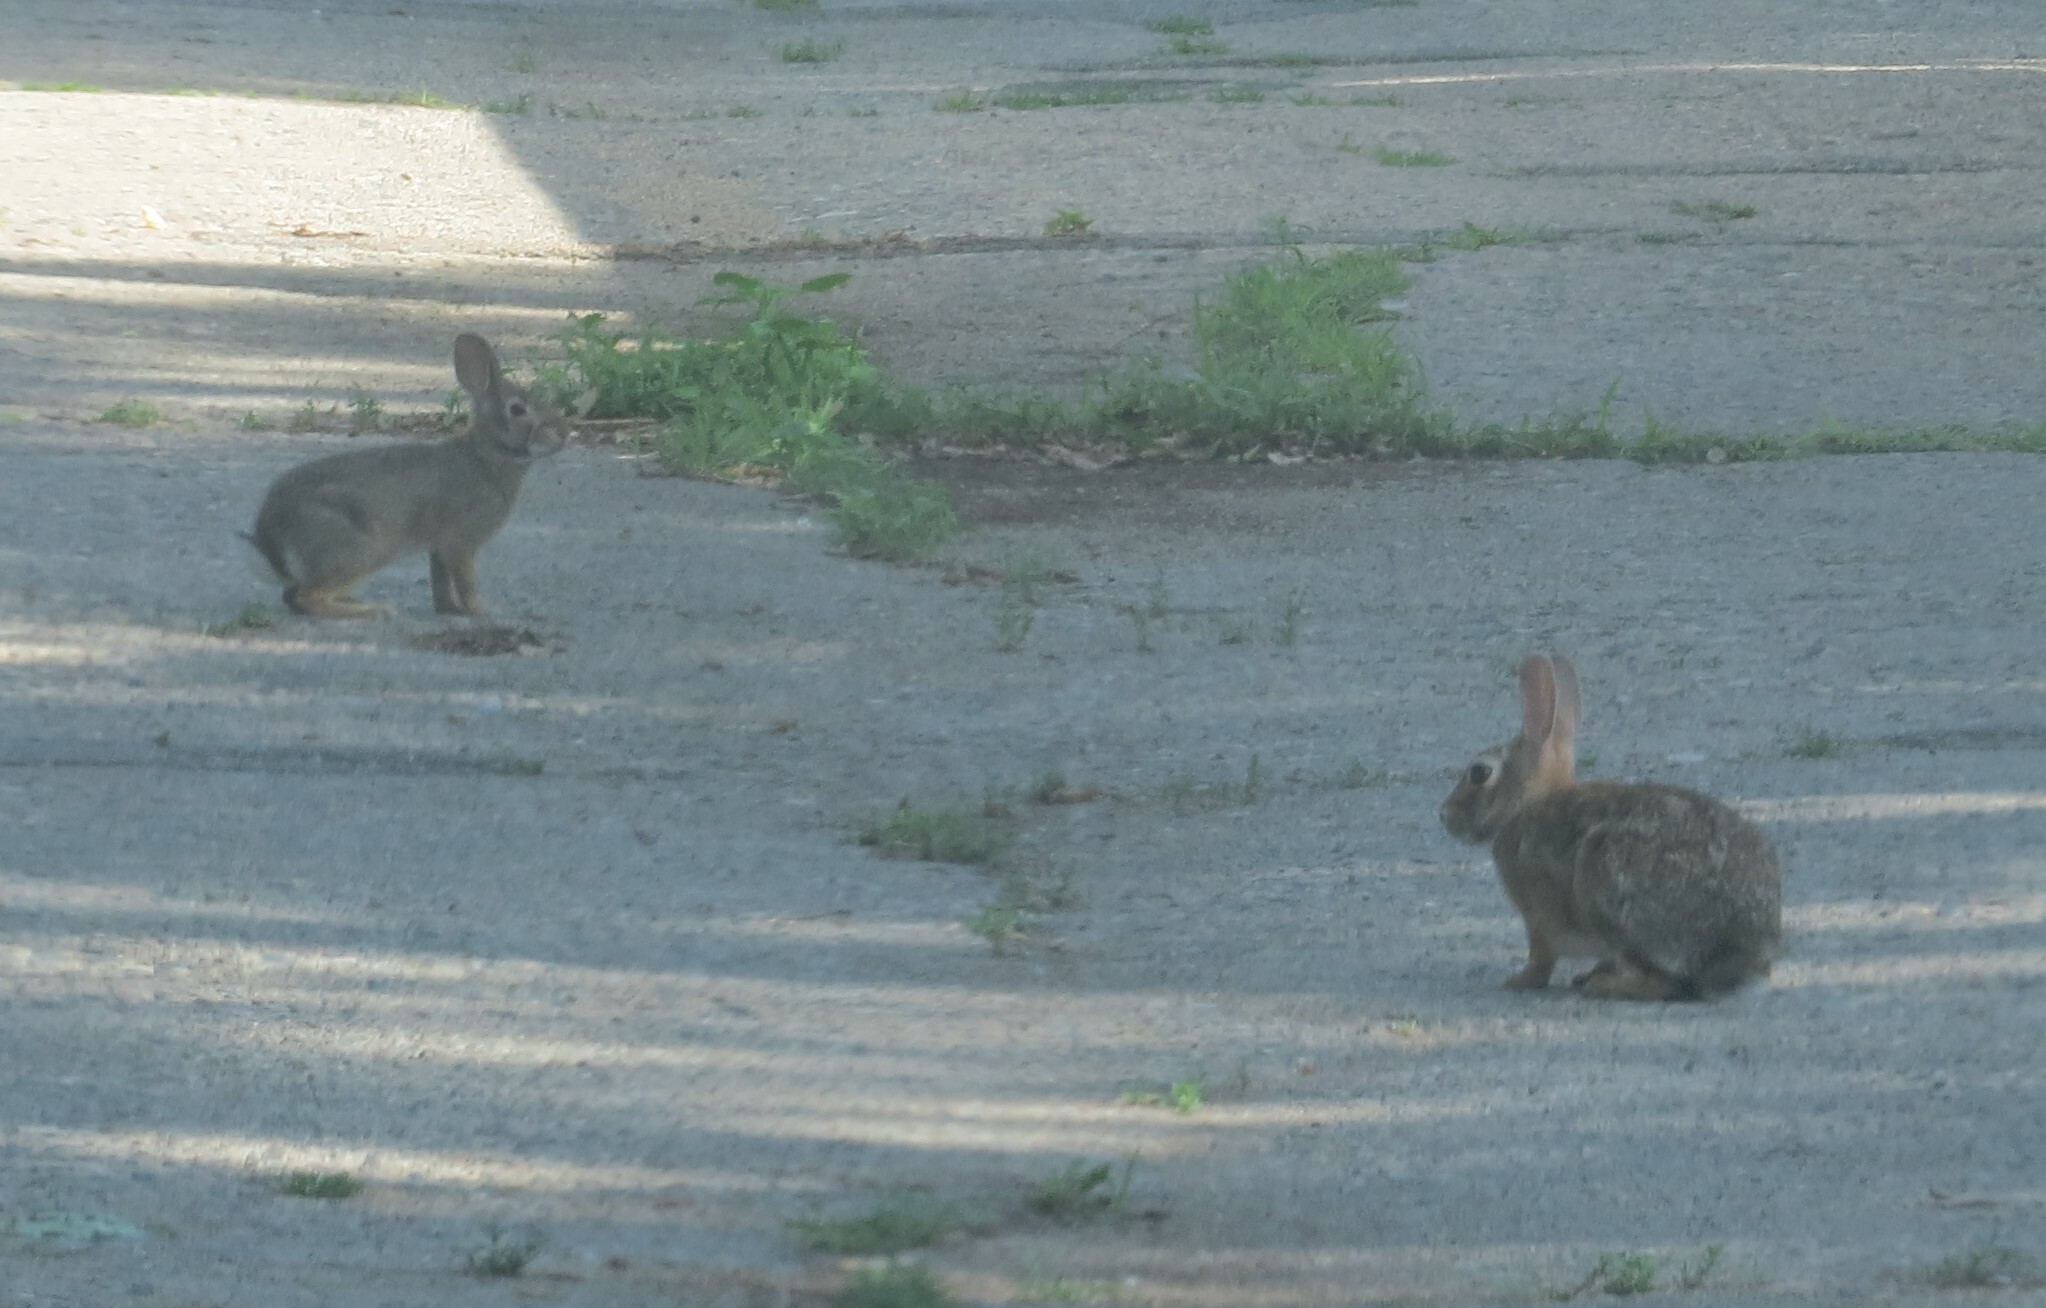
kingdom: Animalia
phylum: Chordata
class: Mammalia
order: Lagomorpha
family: Leporidae
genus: Sylvilagus
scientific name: Sylvilagus floridanus
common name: Eastern cottontail
